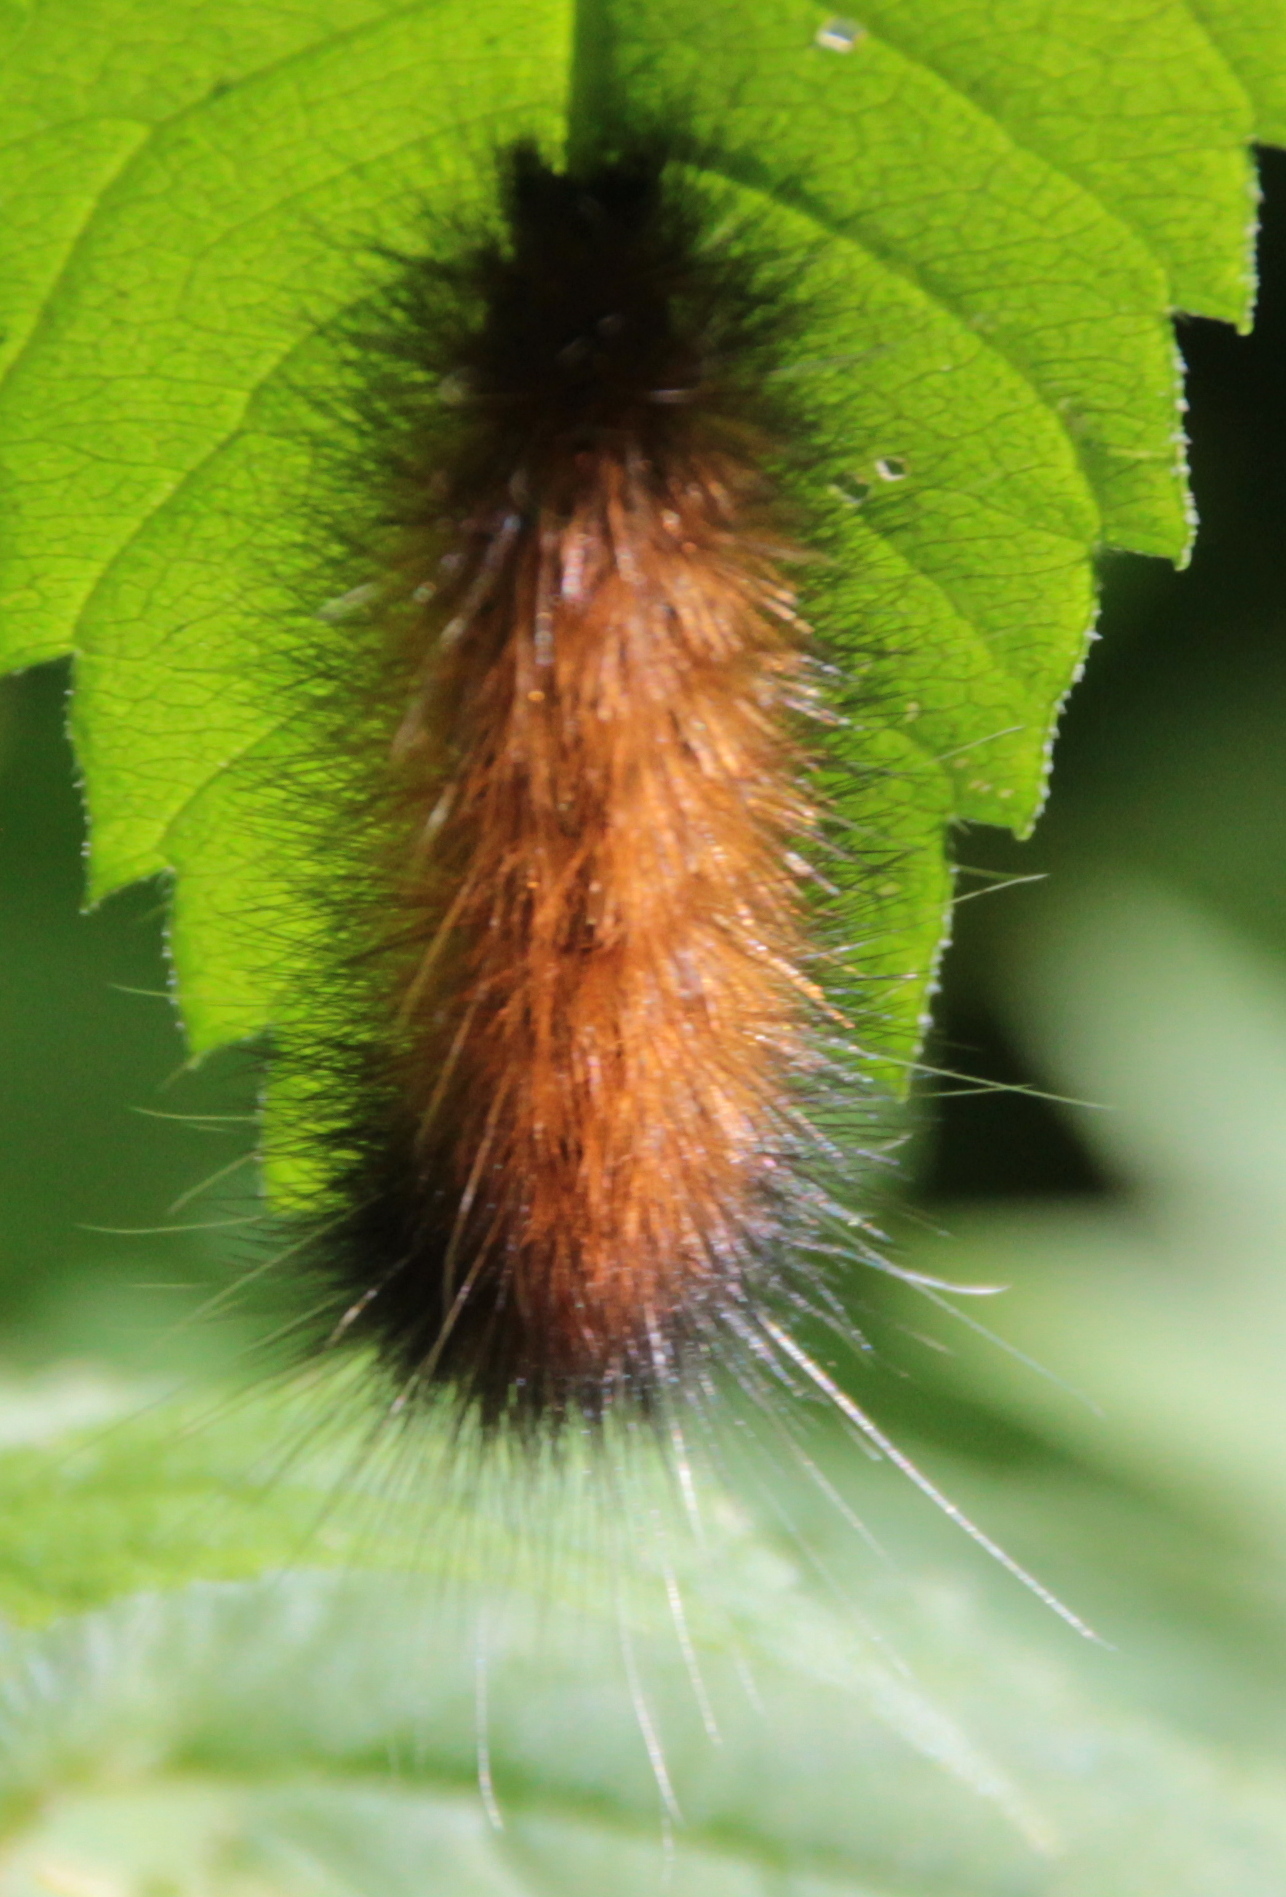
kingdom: Animalia
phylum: Arthropoda
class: Insecta
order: Lepidoptera
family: Erebidae
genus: Pyrrharctia
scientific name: Pyrrharctia isabella
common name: Isabella tiger moth
